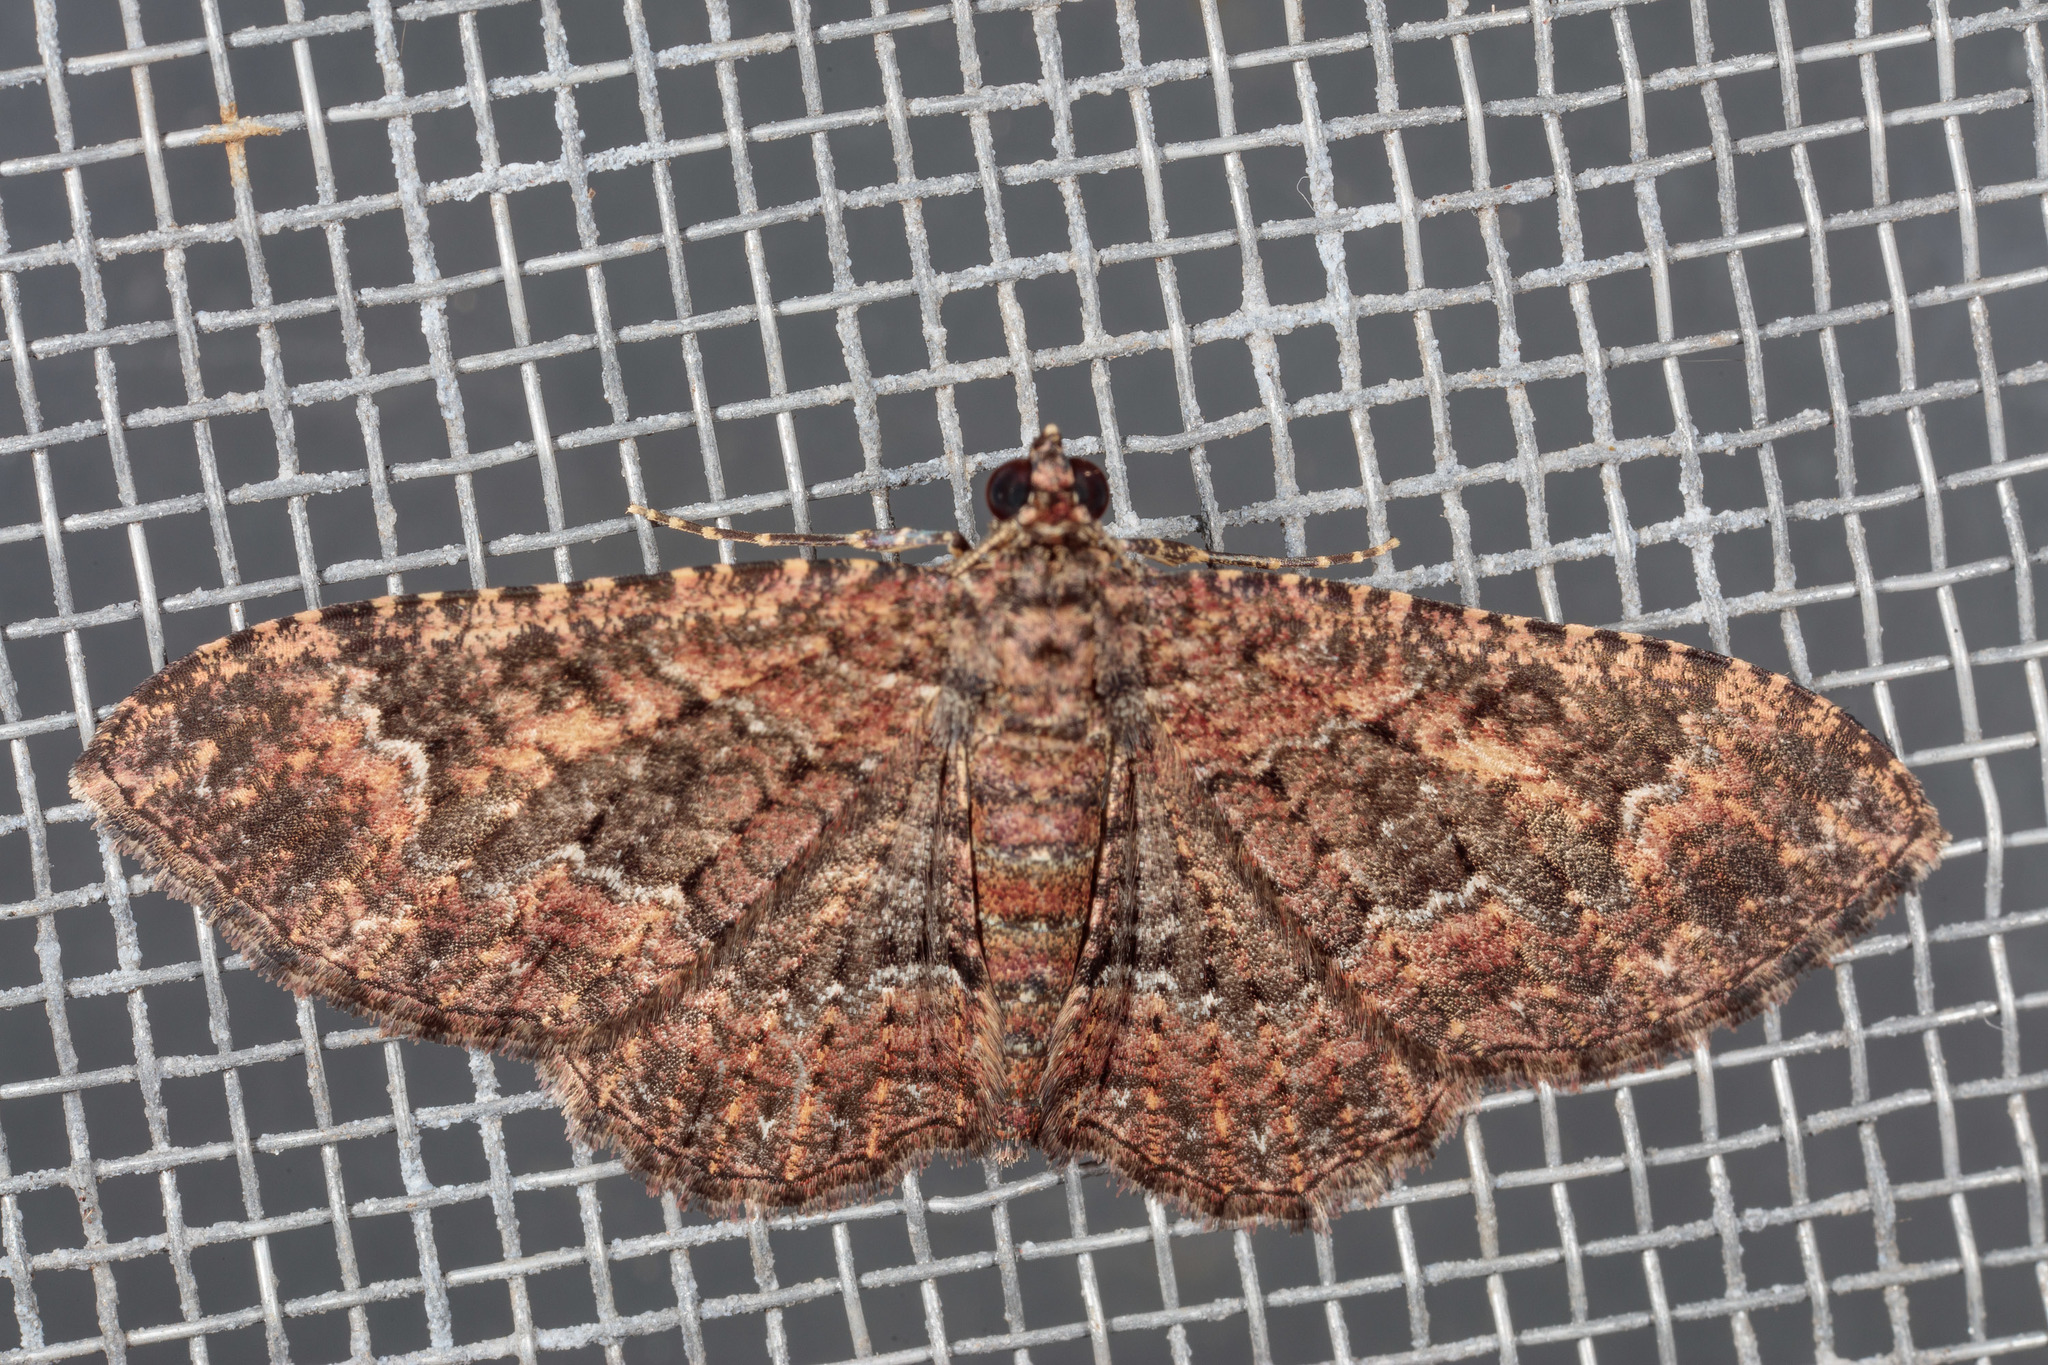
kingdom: Animalia
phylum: Arthropoda
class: Insecta
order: Lepidoptera
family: Geometridae
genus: Disclisioprocta
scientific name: Disclisioprocta stellata
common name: Somber carpet
